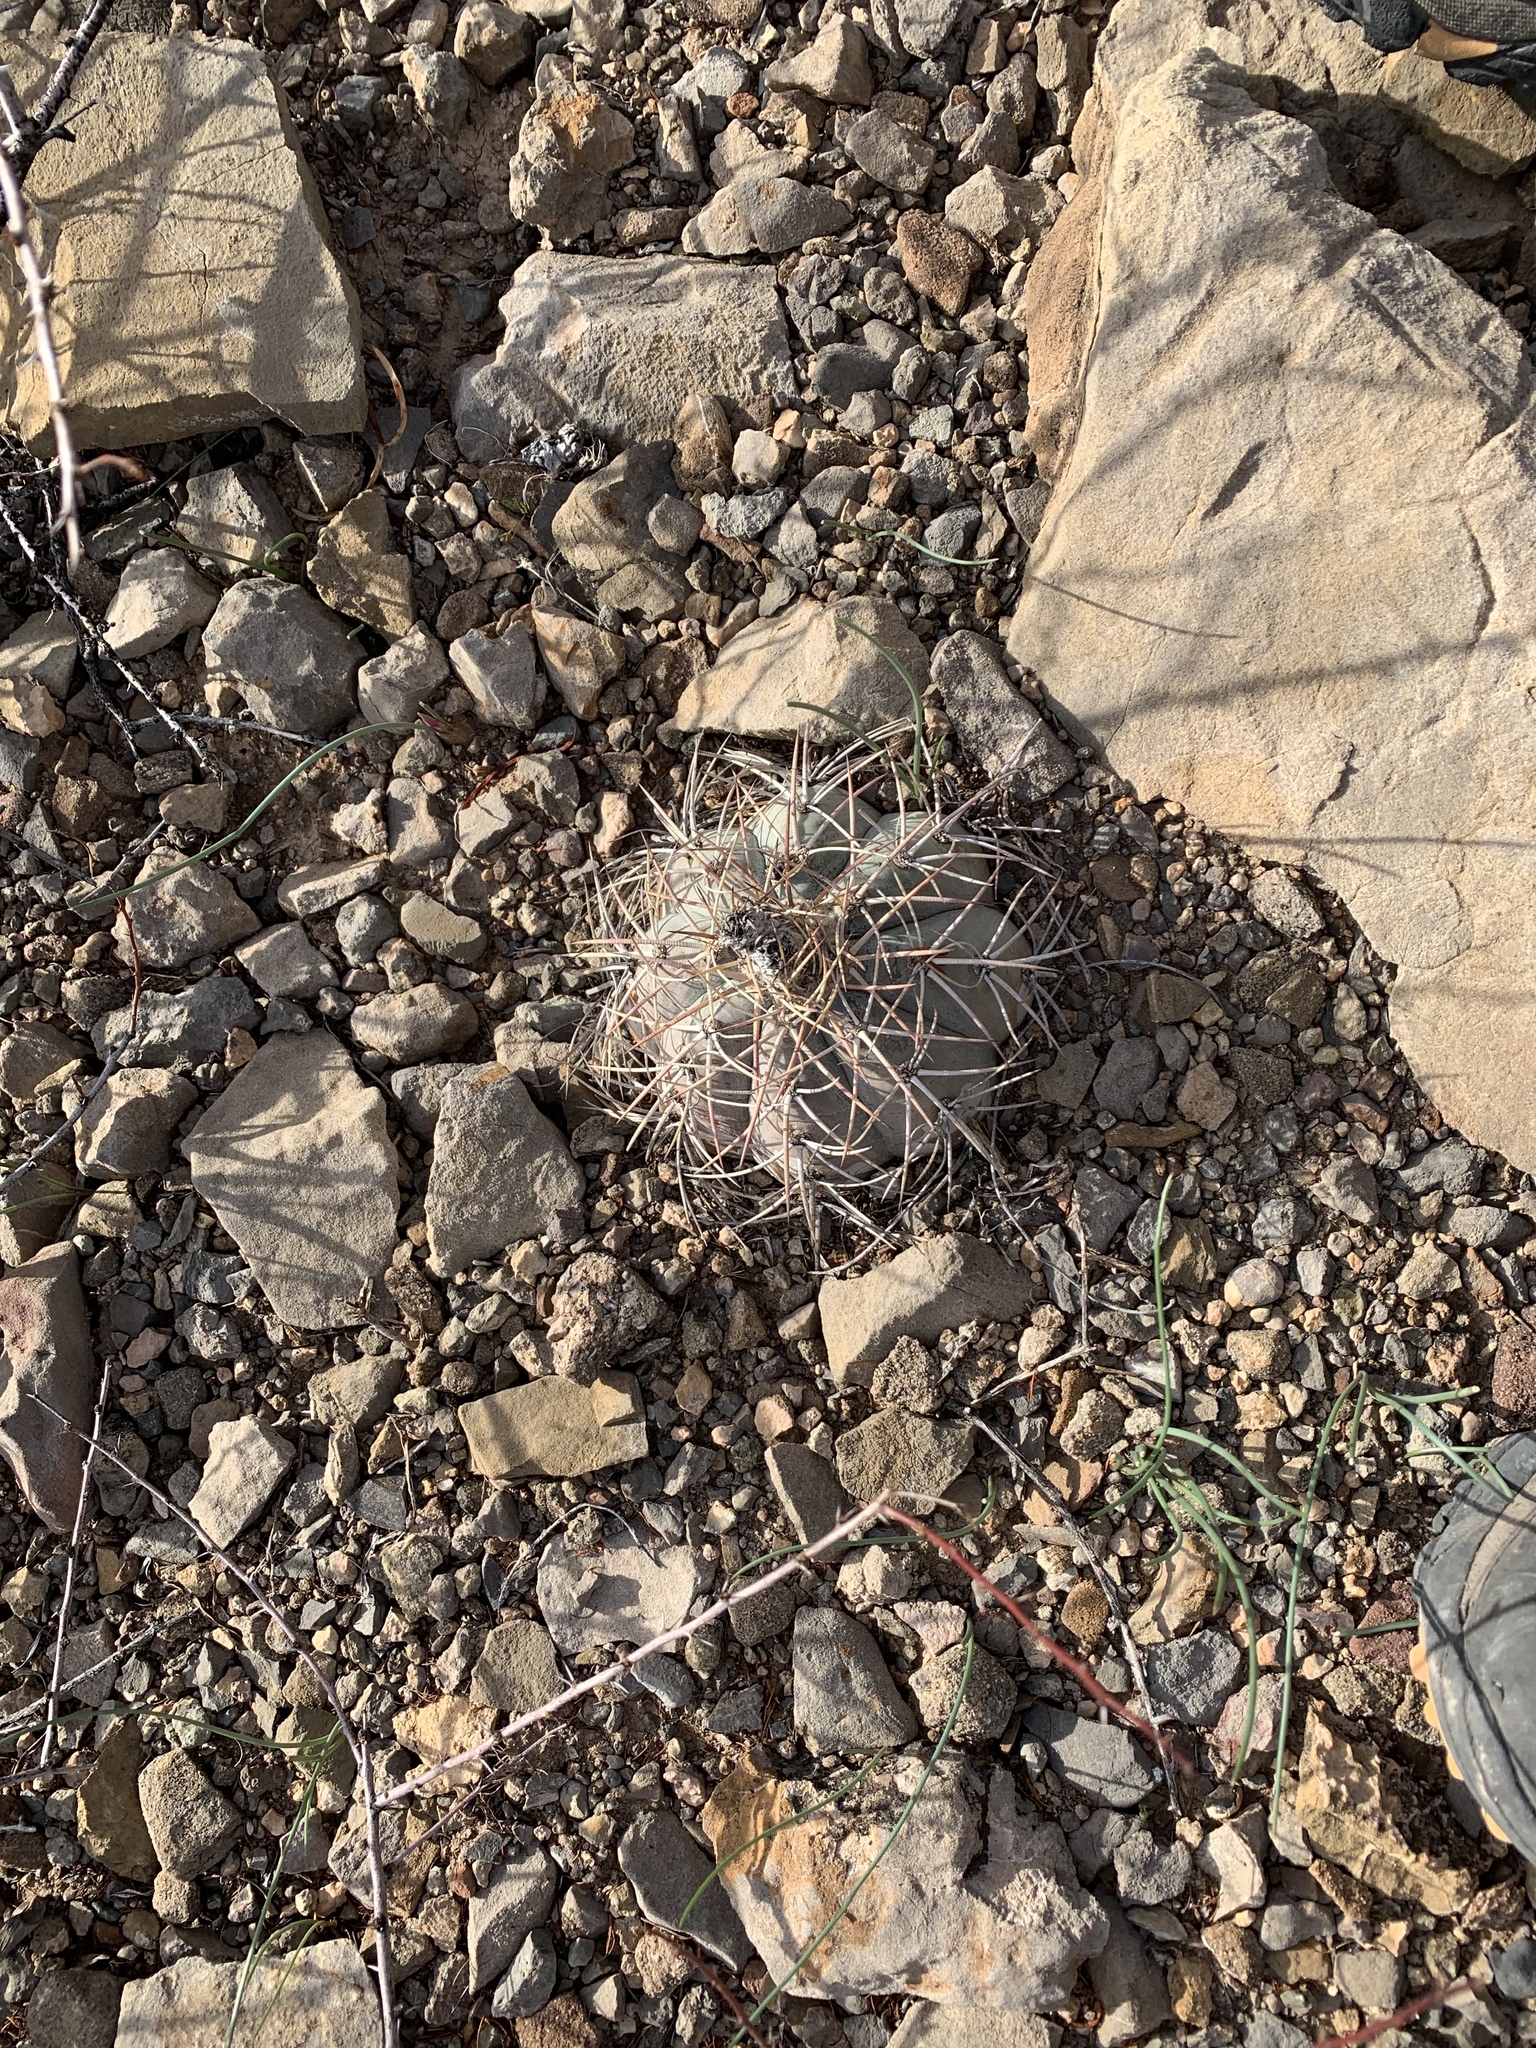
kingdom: Plantae
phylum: Tracheophyta
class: Magnoliopsida
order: Caryophyllales
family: Cactaceae
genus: Echinocactus
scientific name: Echinocactus horizonthalonius
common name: Devilshead
